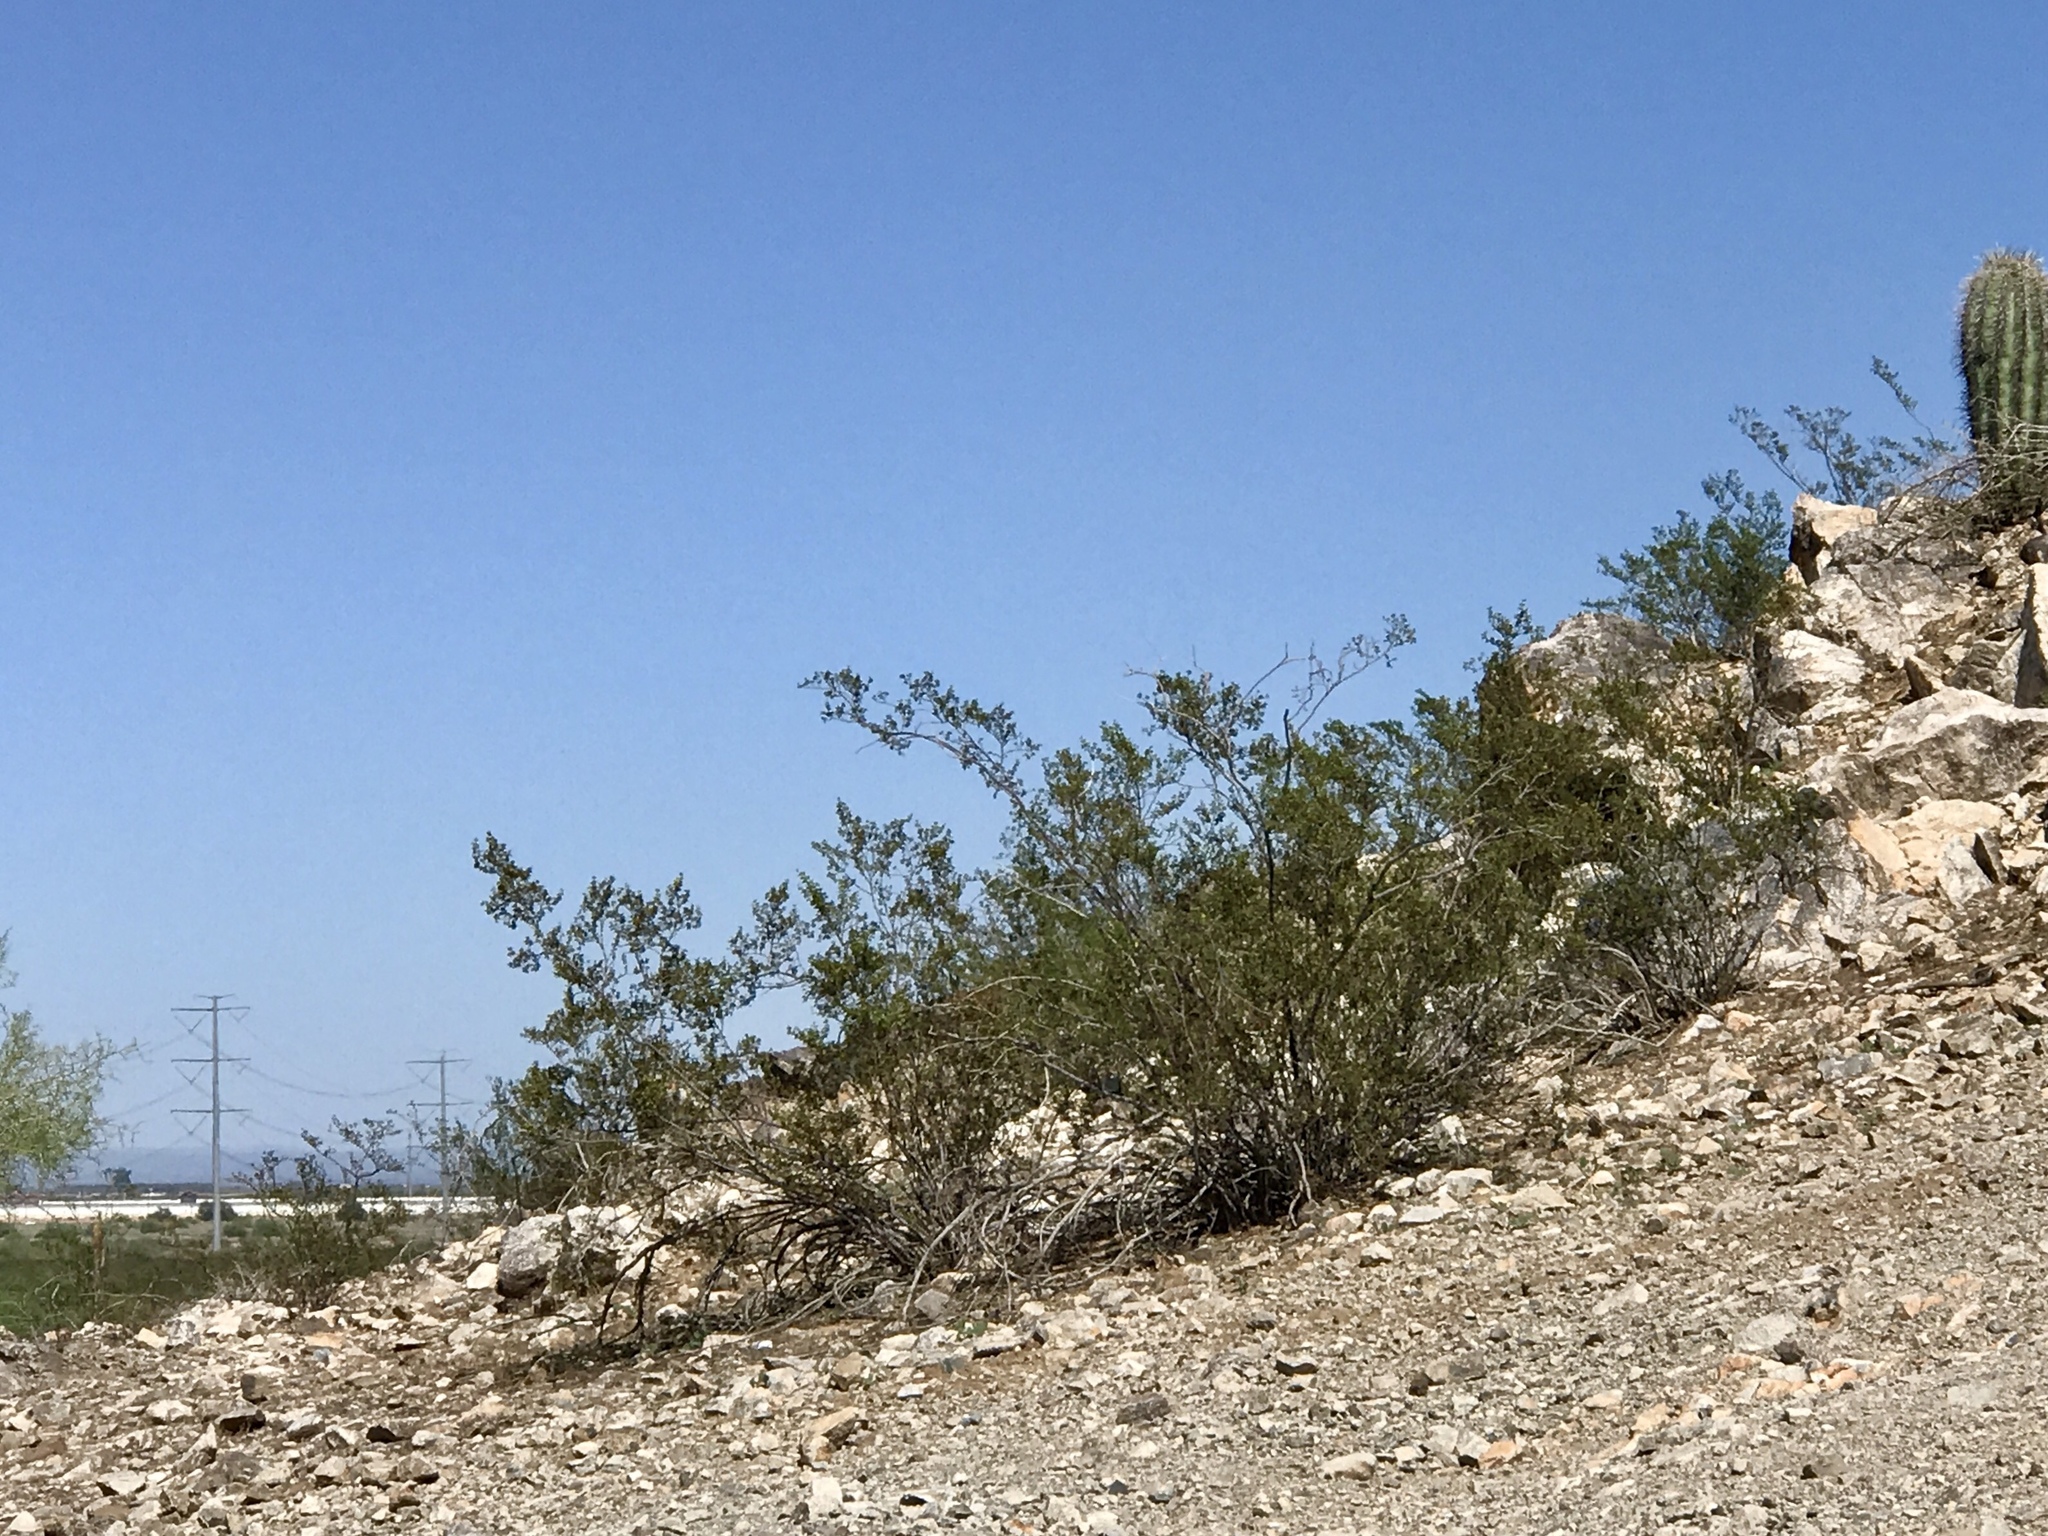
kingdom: Plantae
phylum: Tracheophyta
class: Magnoliopsida
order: Zygophyllales
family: Zygophyllaceae
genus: Larrea
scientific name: Larrea tridentata
